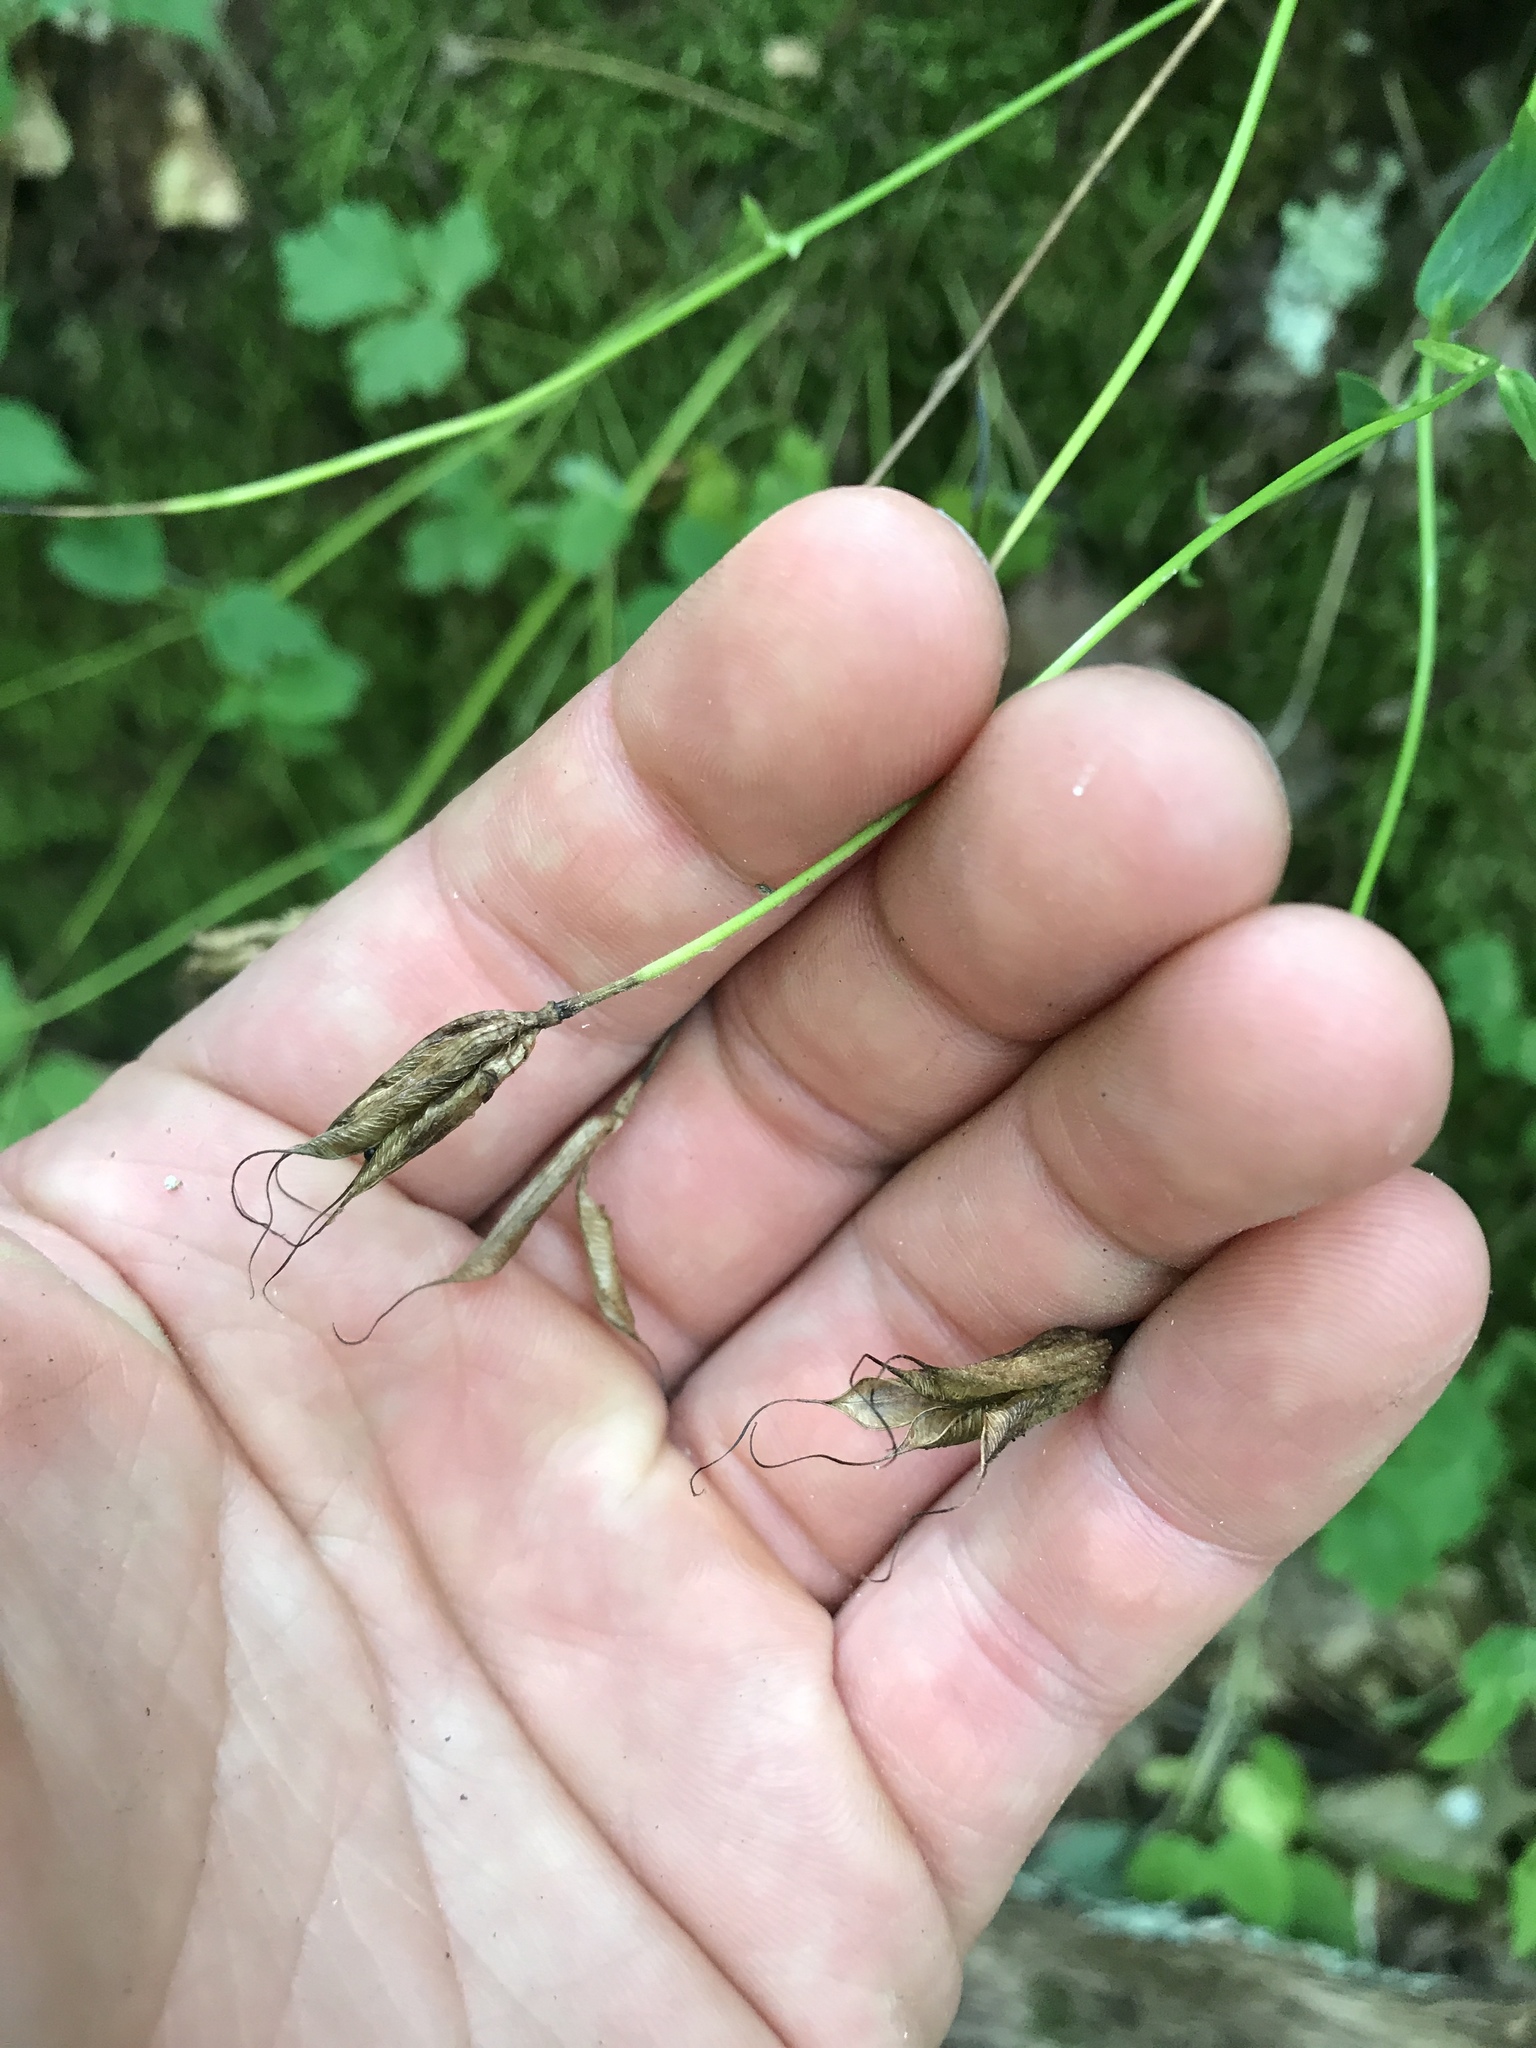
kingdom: Plantae
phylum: Tracheophyta
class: Magnoliopsida
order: Ranunculales
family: Ranunculaceae
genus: Aquilegia
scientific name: Aquilegia canadensis
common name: American columbine
